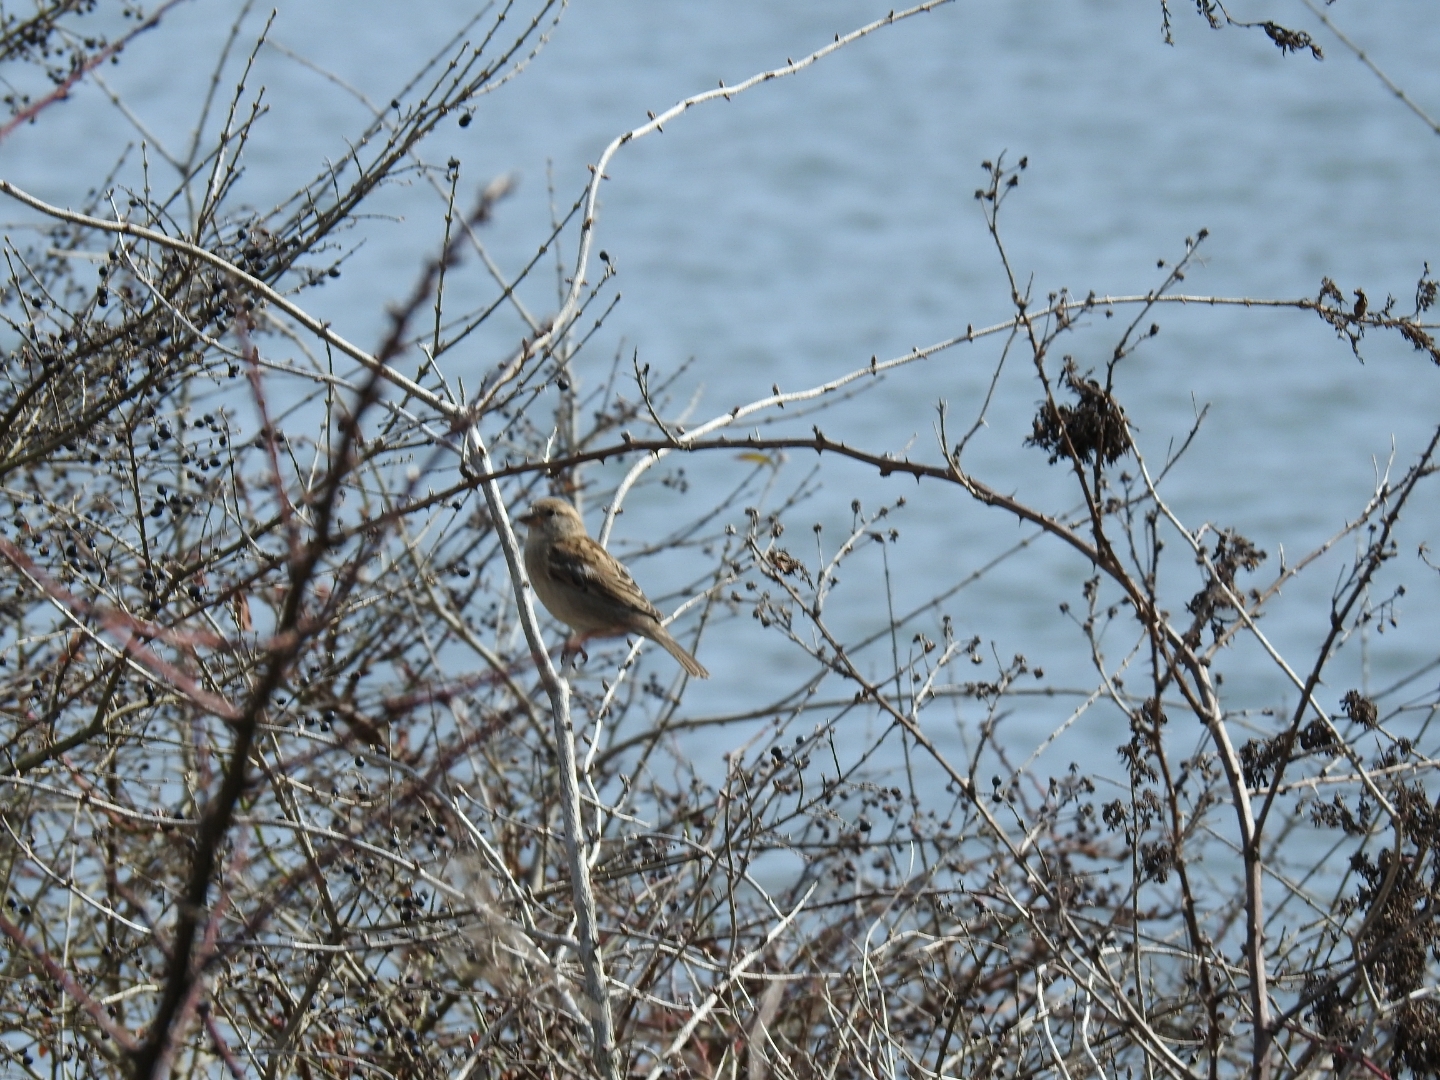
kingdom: Animalia
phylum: Chordata
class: Aves
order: Passeriformes
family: Passeridae
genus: Passer
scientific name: Passer domesticus
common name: House sparrow
